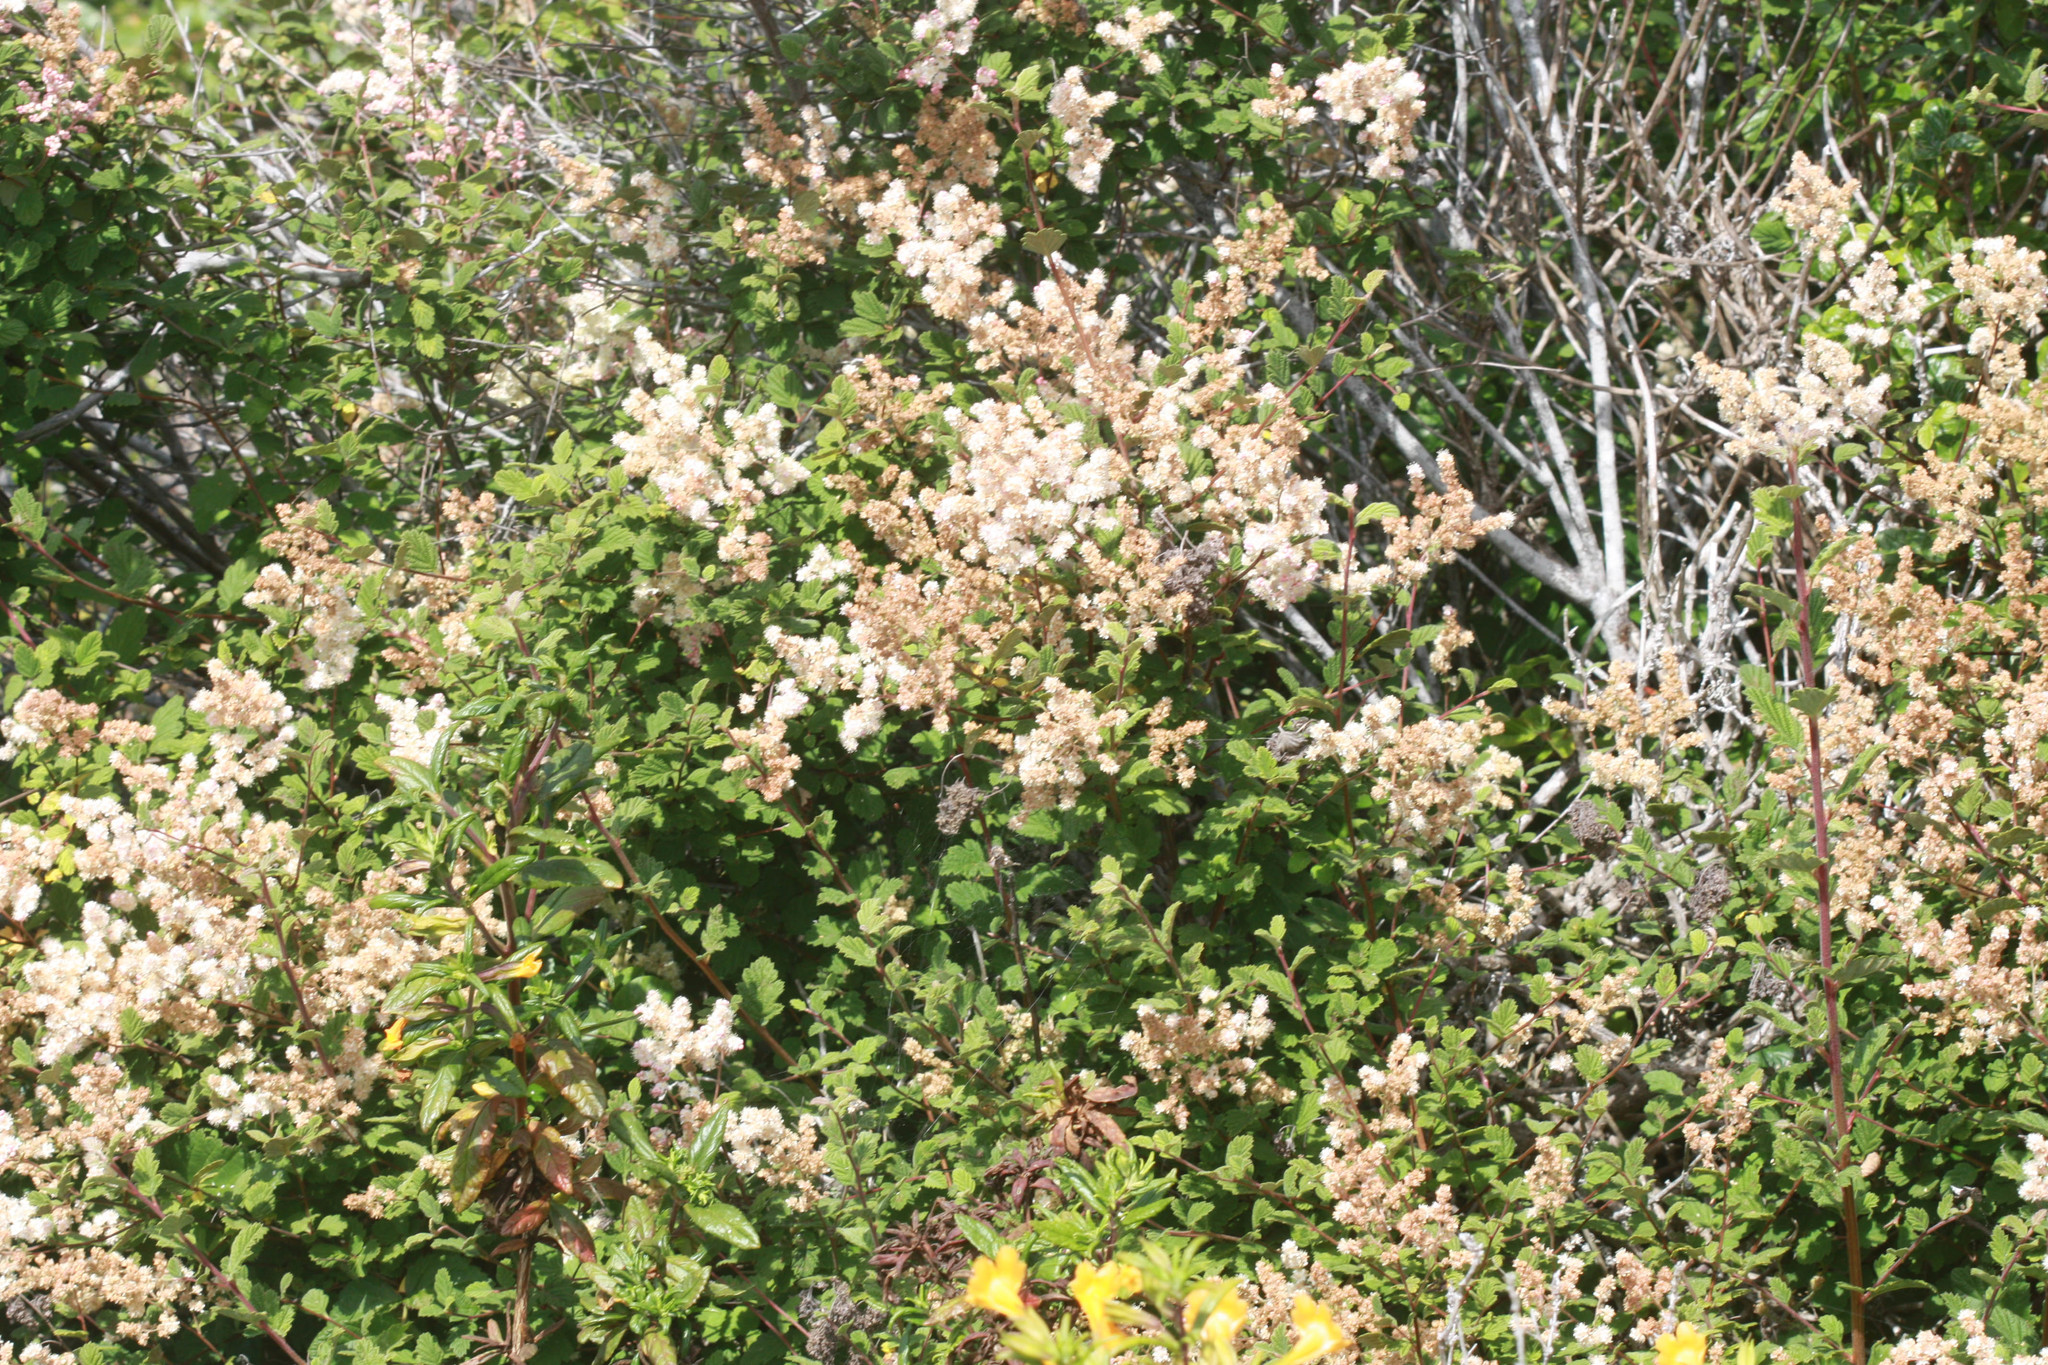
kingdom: Plantae
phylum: Tracheophyta
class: Magnoliopsida
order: Rosales
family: Rosaceae
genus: Holodiscus
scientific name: Holodiscus discolor
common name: Oceanspray
